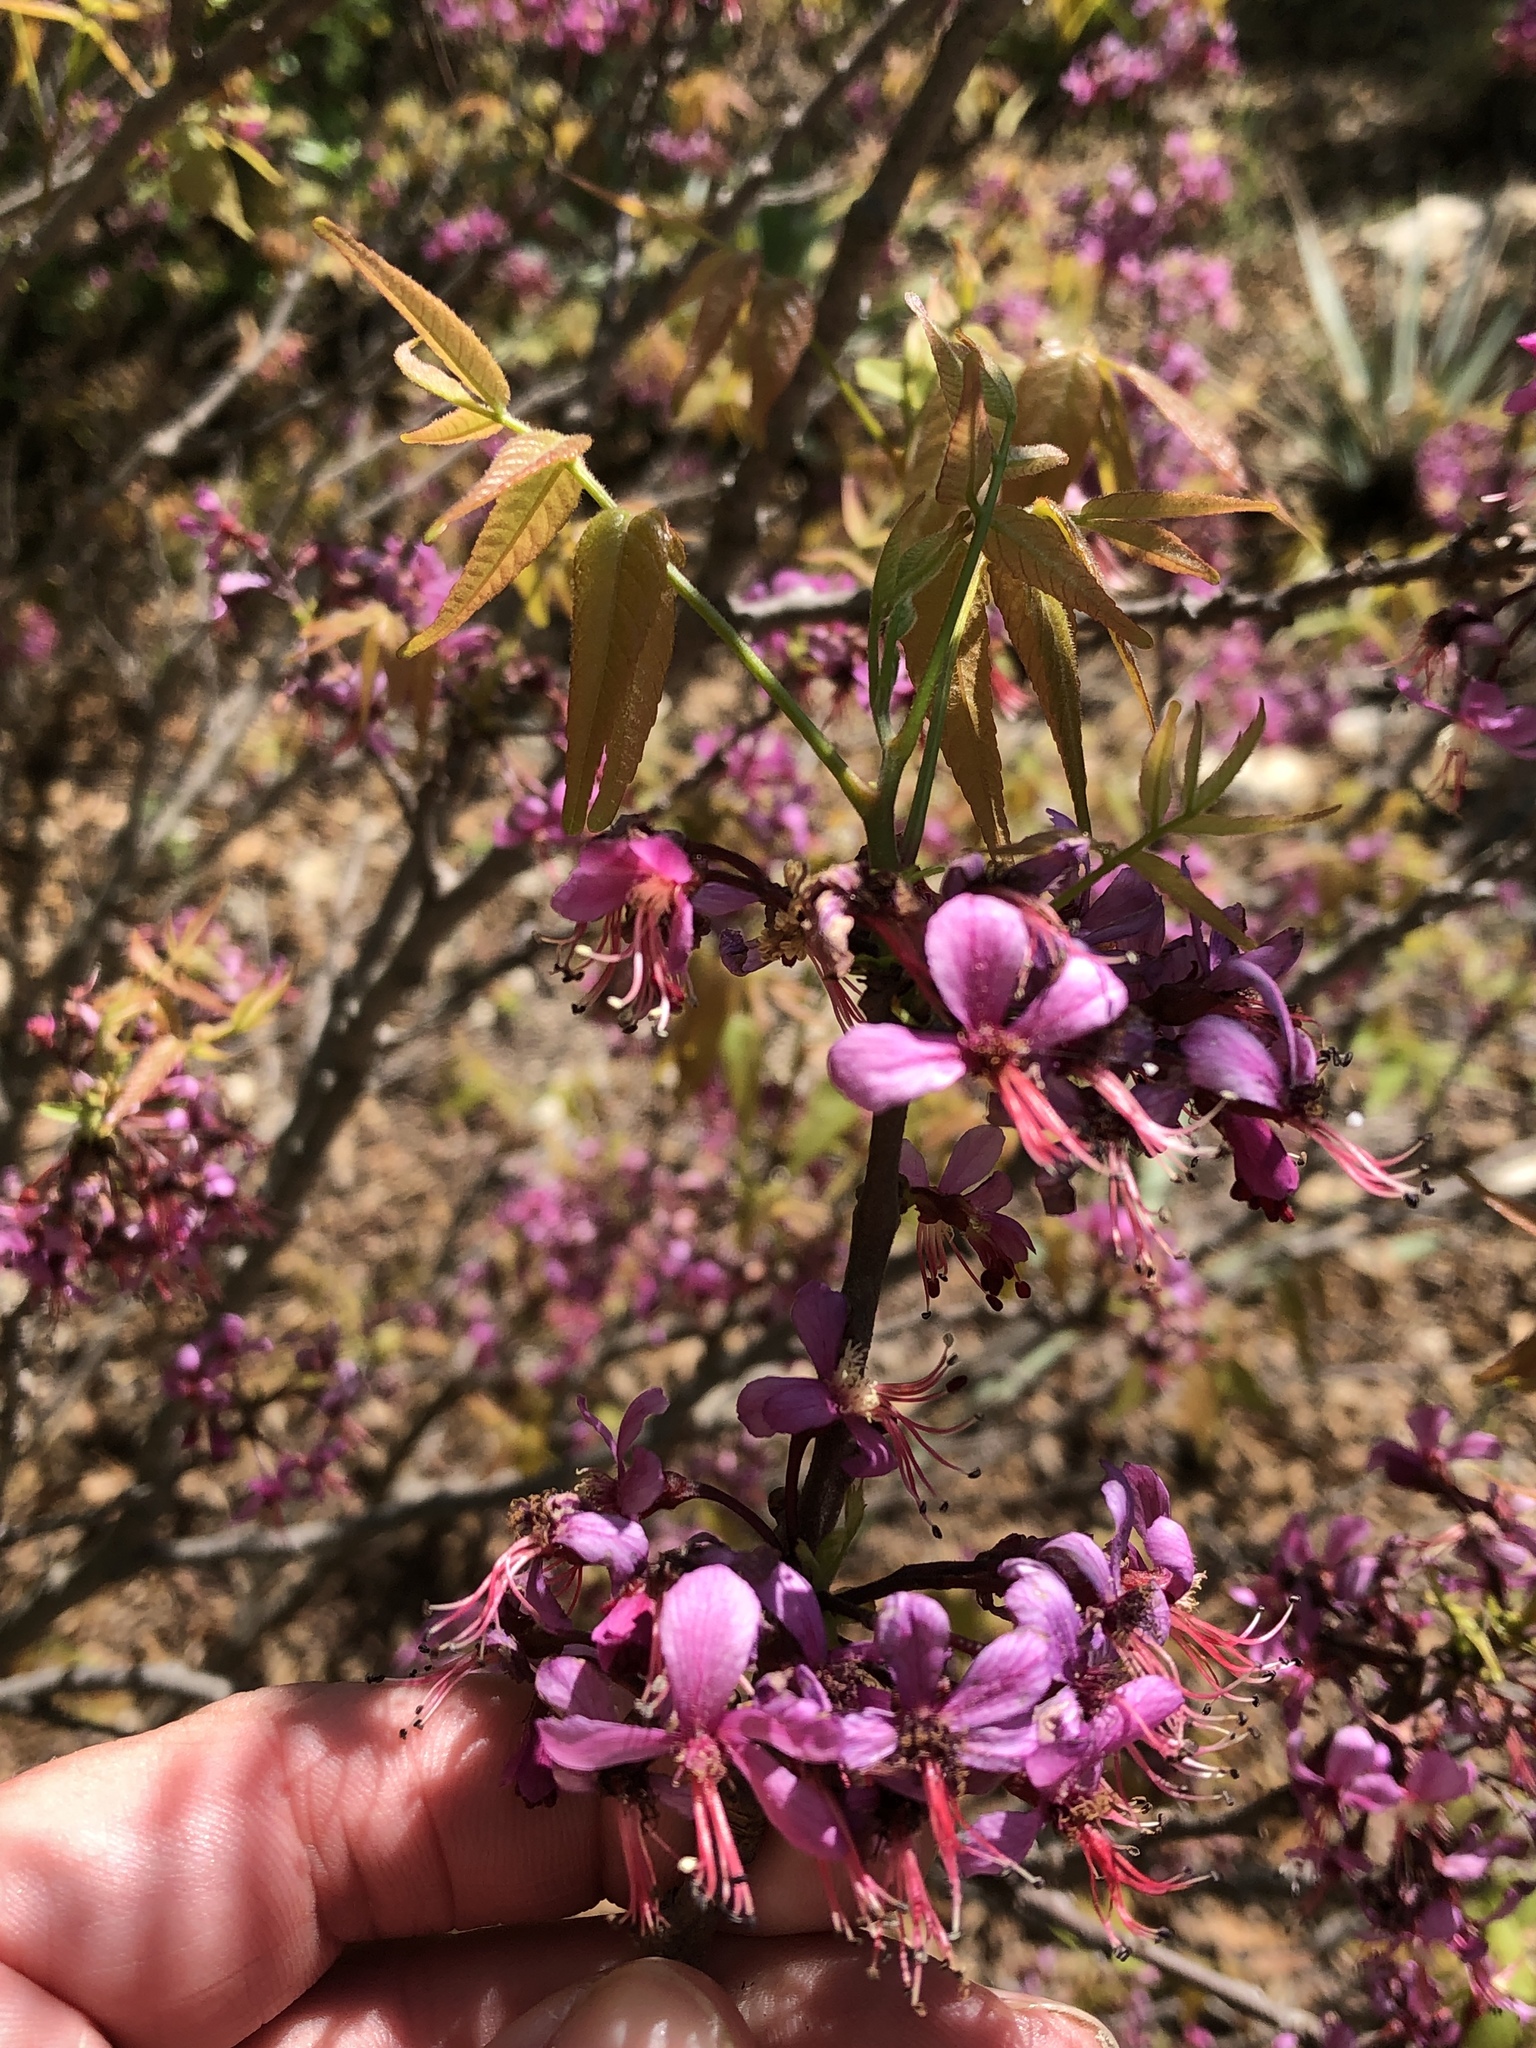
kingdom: Plantae
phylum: Tracheophyta
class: Magnoliopsida
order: Sapindales
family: Sapindaceae
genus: Ungnadia
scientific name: Ungnadia speciosa
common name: Texas-buckeye
